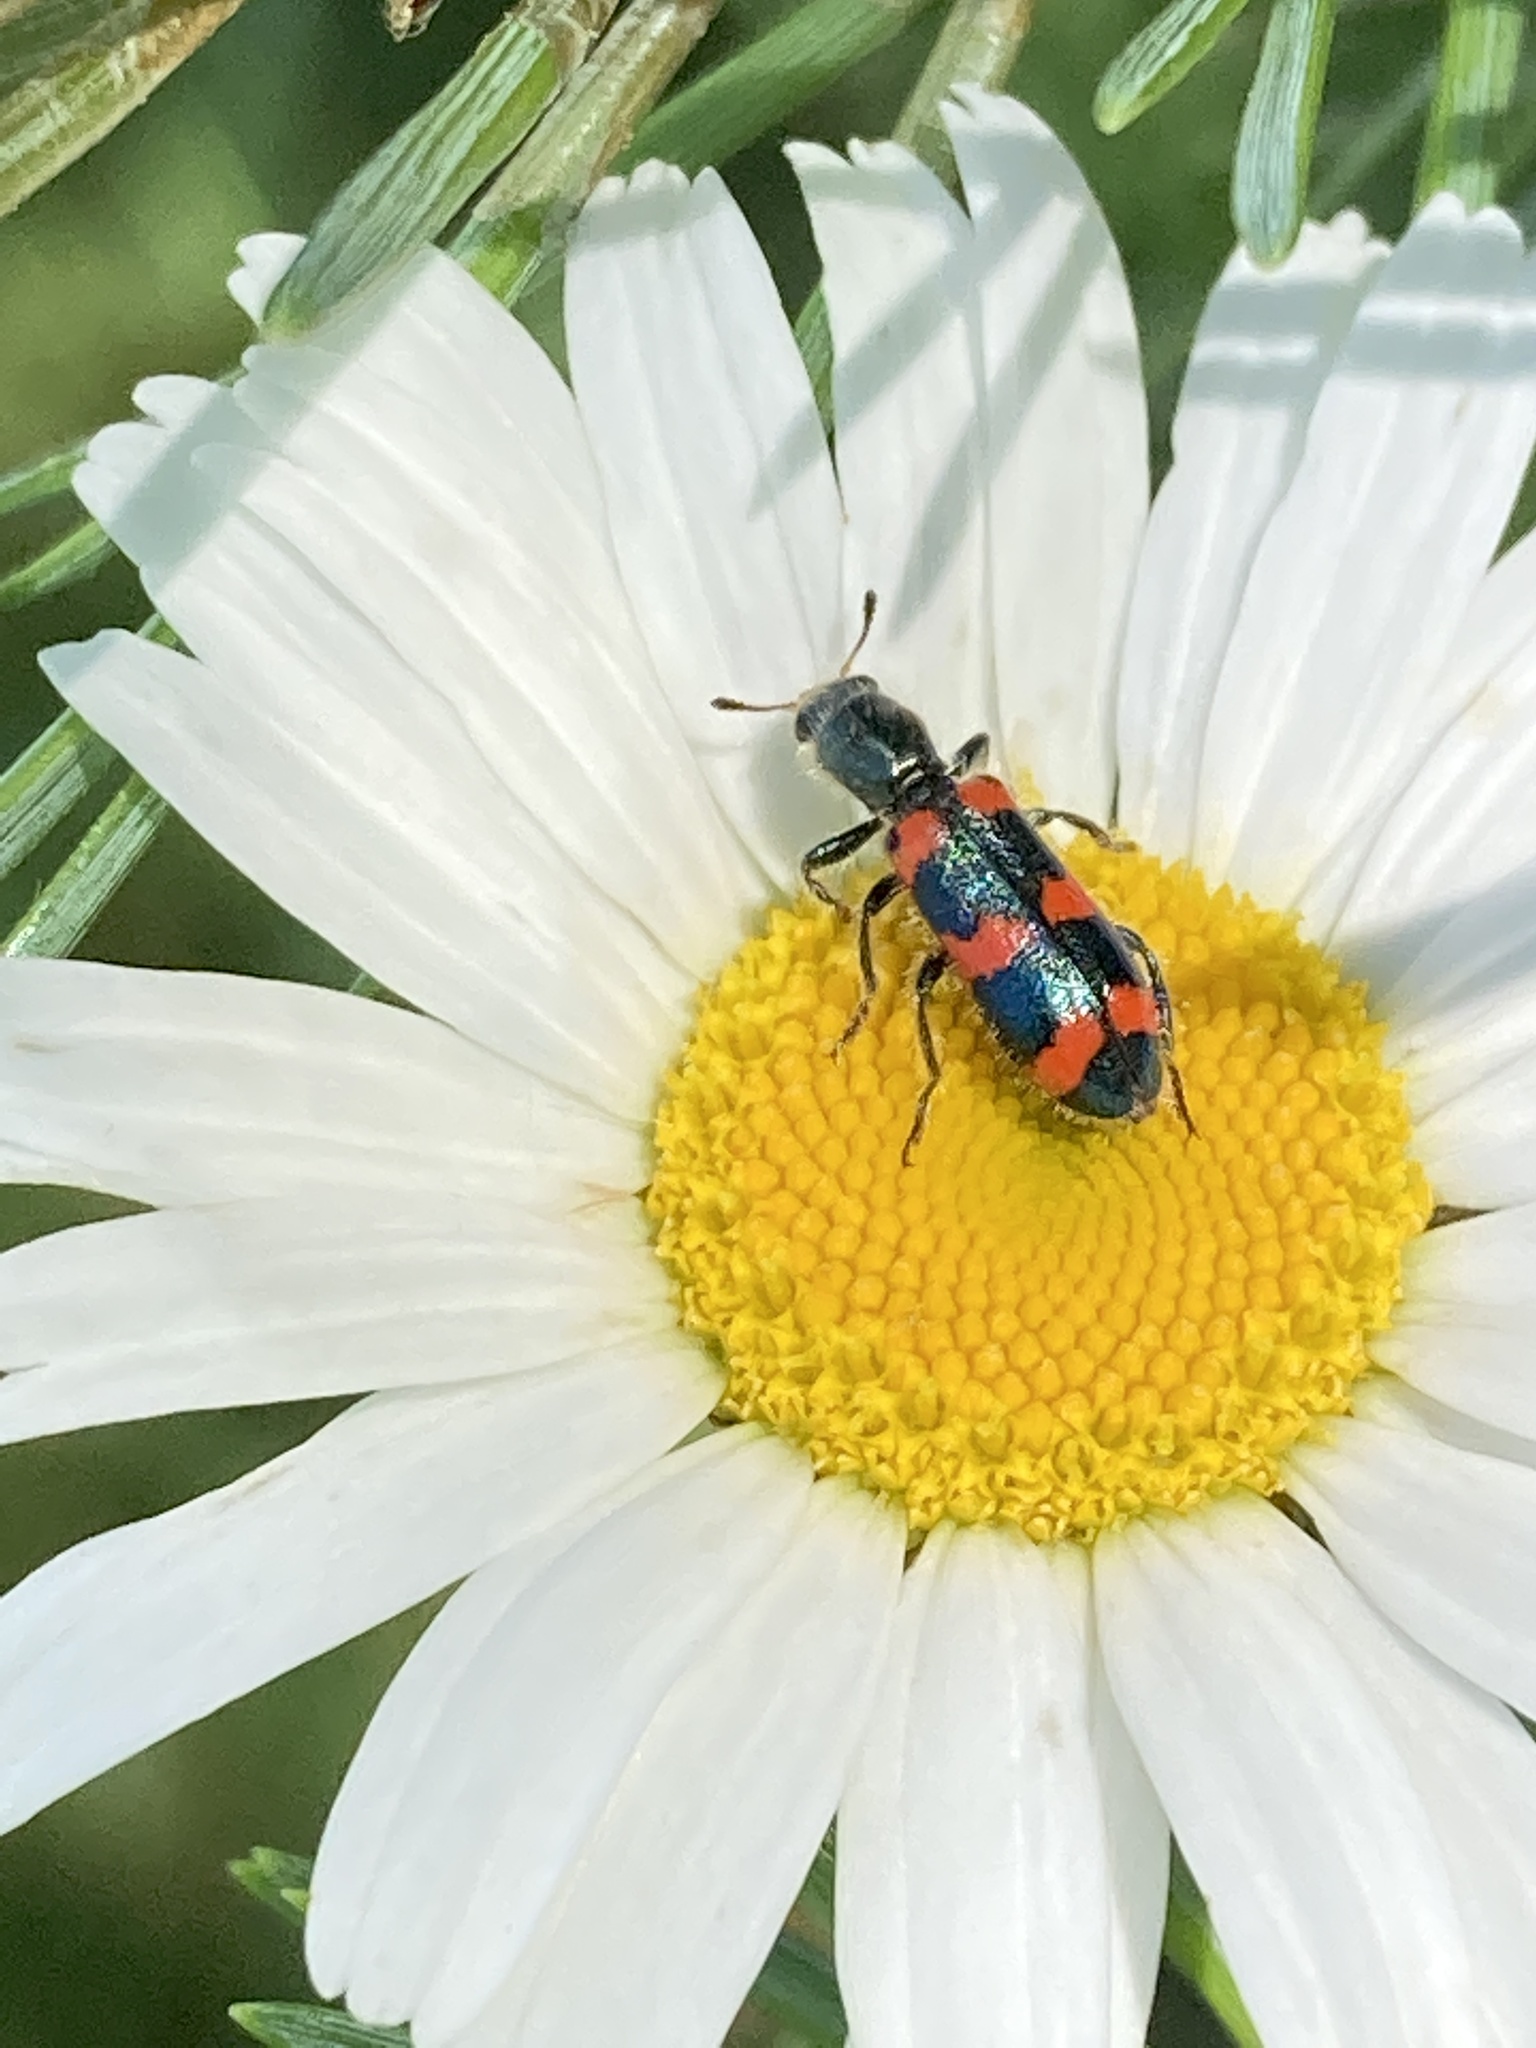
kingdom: Animalia
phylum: Arthropoda
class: Insecta
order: Coleoptera
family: Cleridae
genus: Trichodes
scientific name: Trichodes nutalli
